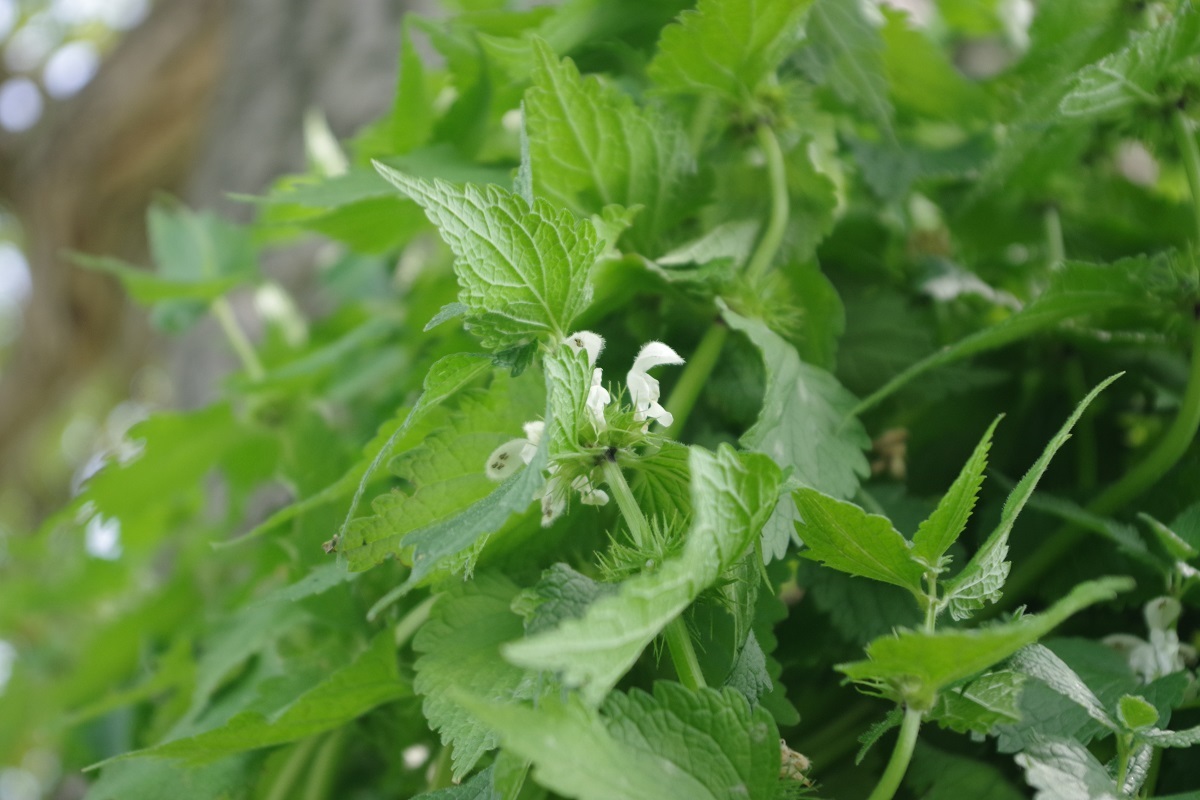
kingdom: Plantae
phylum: Tracheophyta
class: Magnoliopsida
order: Lamiales
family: Lamiaceae
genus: Lamium
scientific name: Lamium album
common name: White dead-nettle
